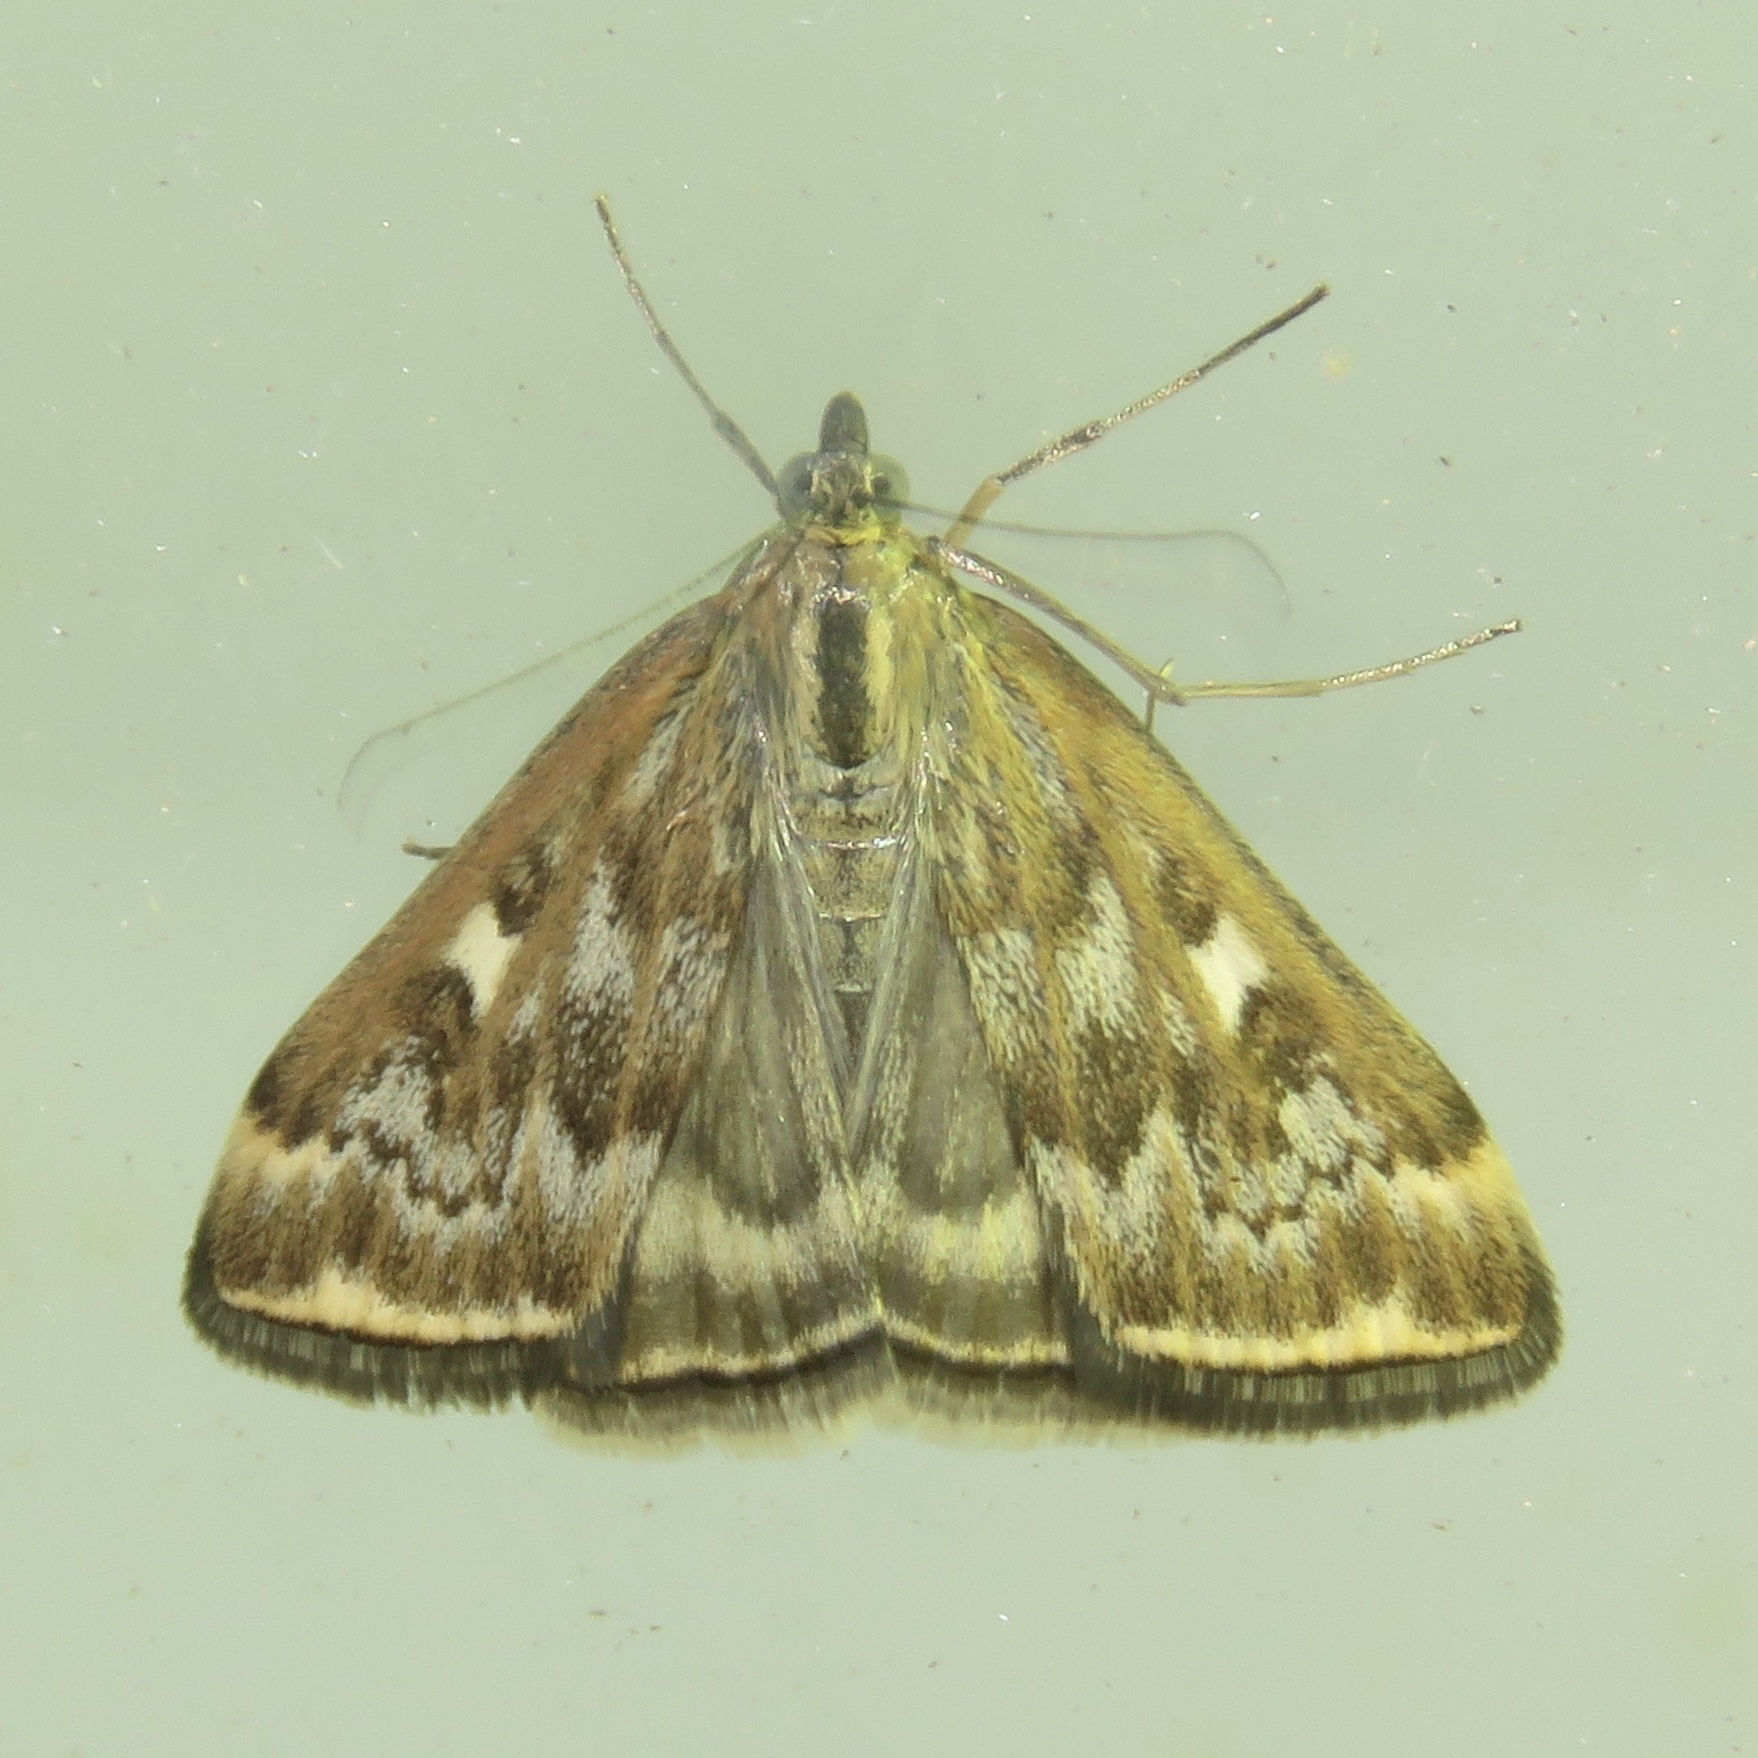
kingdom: Animalia
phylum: Arthropoda
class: Insecta
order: Lepidoptera
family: Crambidae
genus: Loxostege
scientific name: Loxostege
